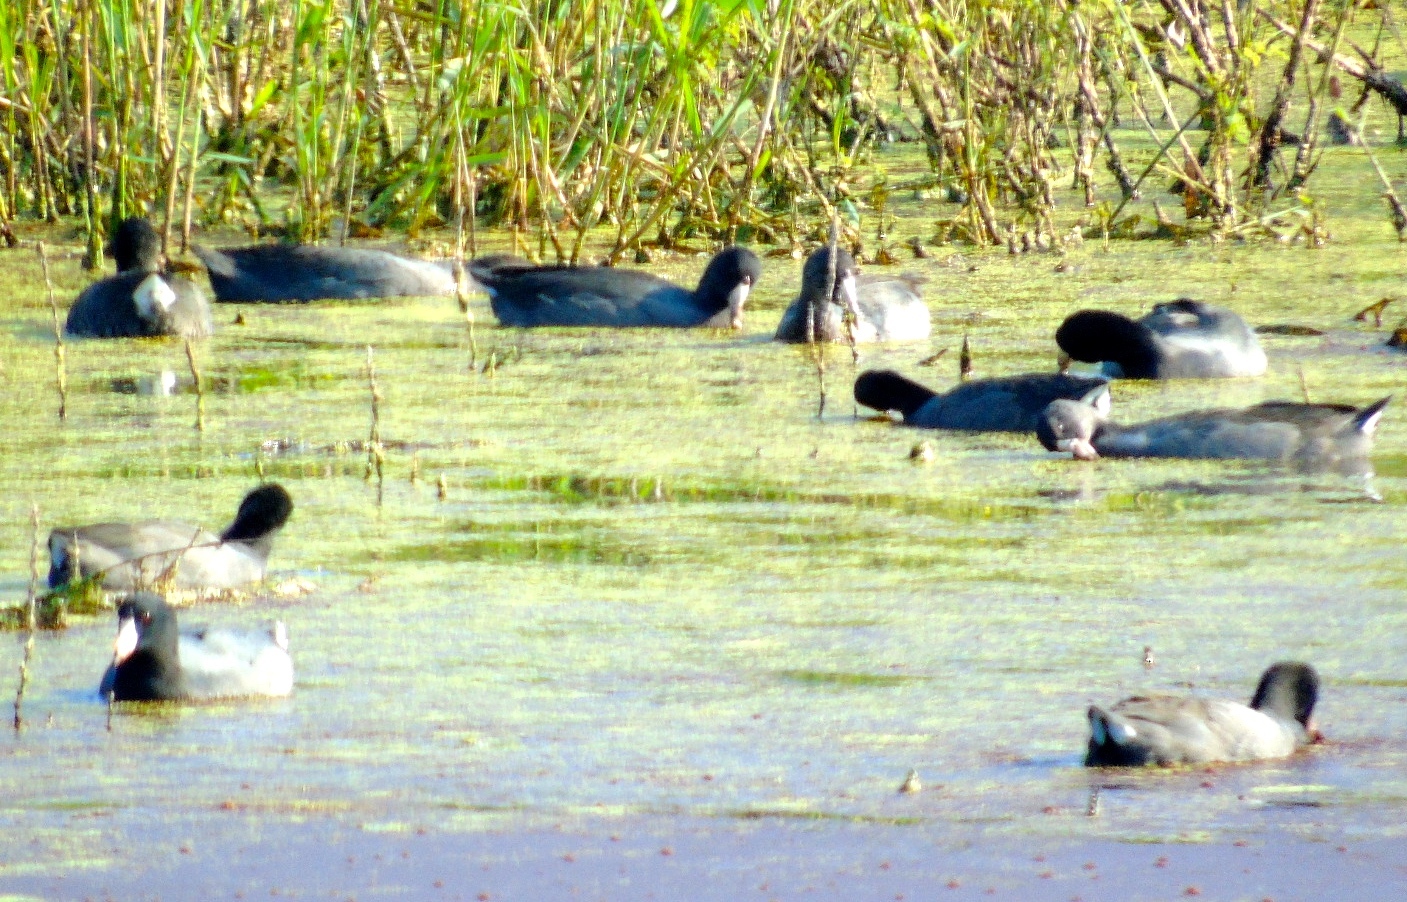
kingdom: Animalia
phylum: Chordata
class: Aves
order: Gruiformes
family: Rallidae
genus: Fulica
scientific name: Fulica americana
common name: American coot
